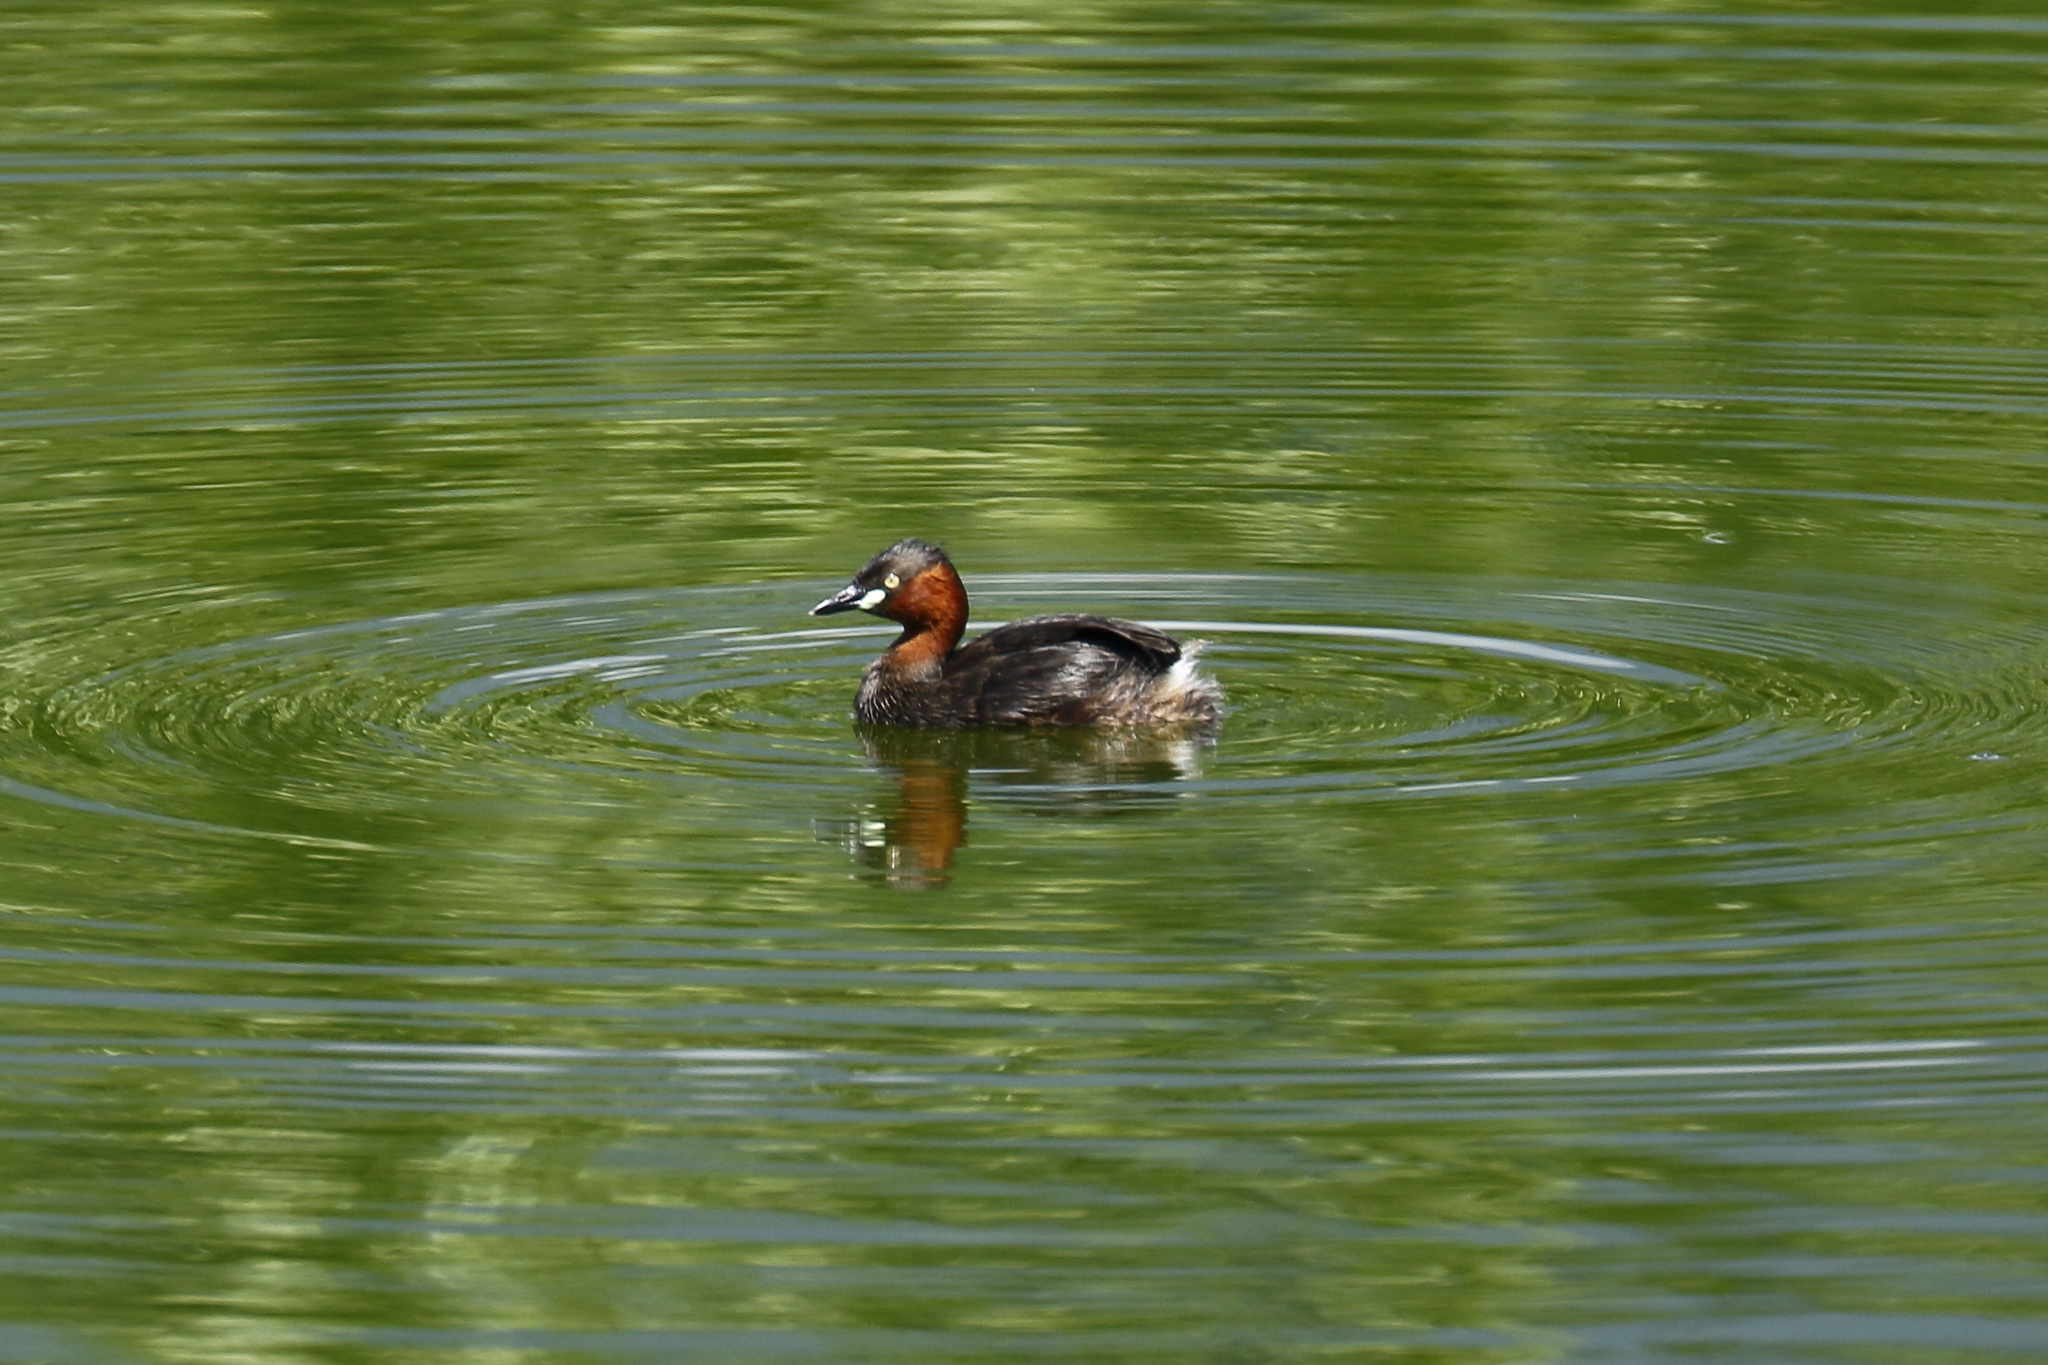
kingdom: Animalia
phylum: Chordata
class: Aves
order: Podicipediformes
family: Podicipedidae
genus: Tachybaptus
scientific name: Tachybaptus ruficollis
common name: Little grebe
